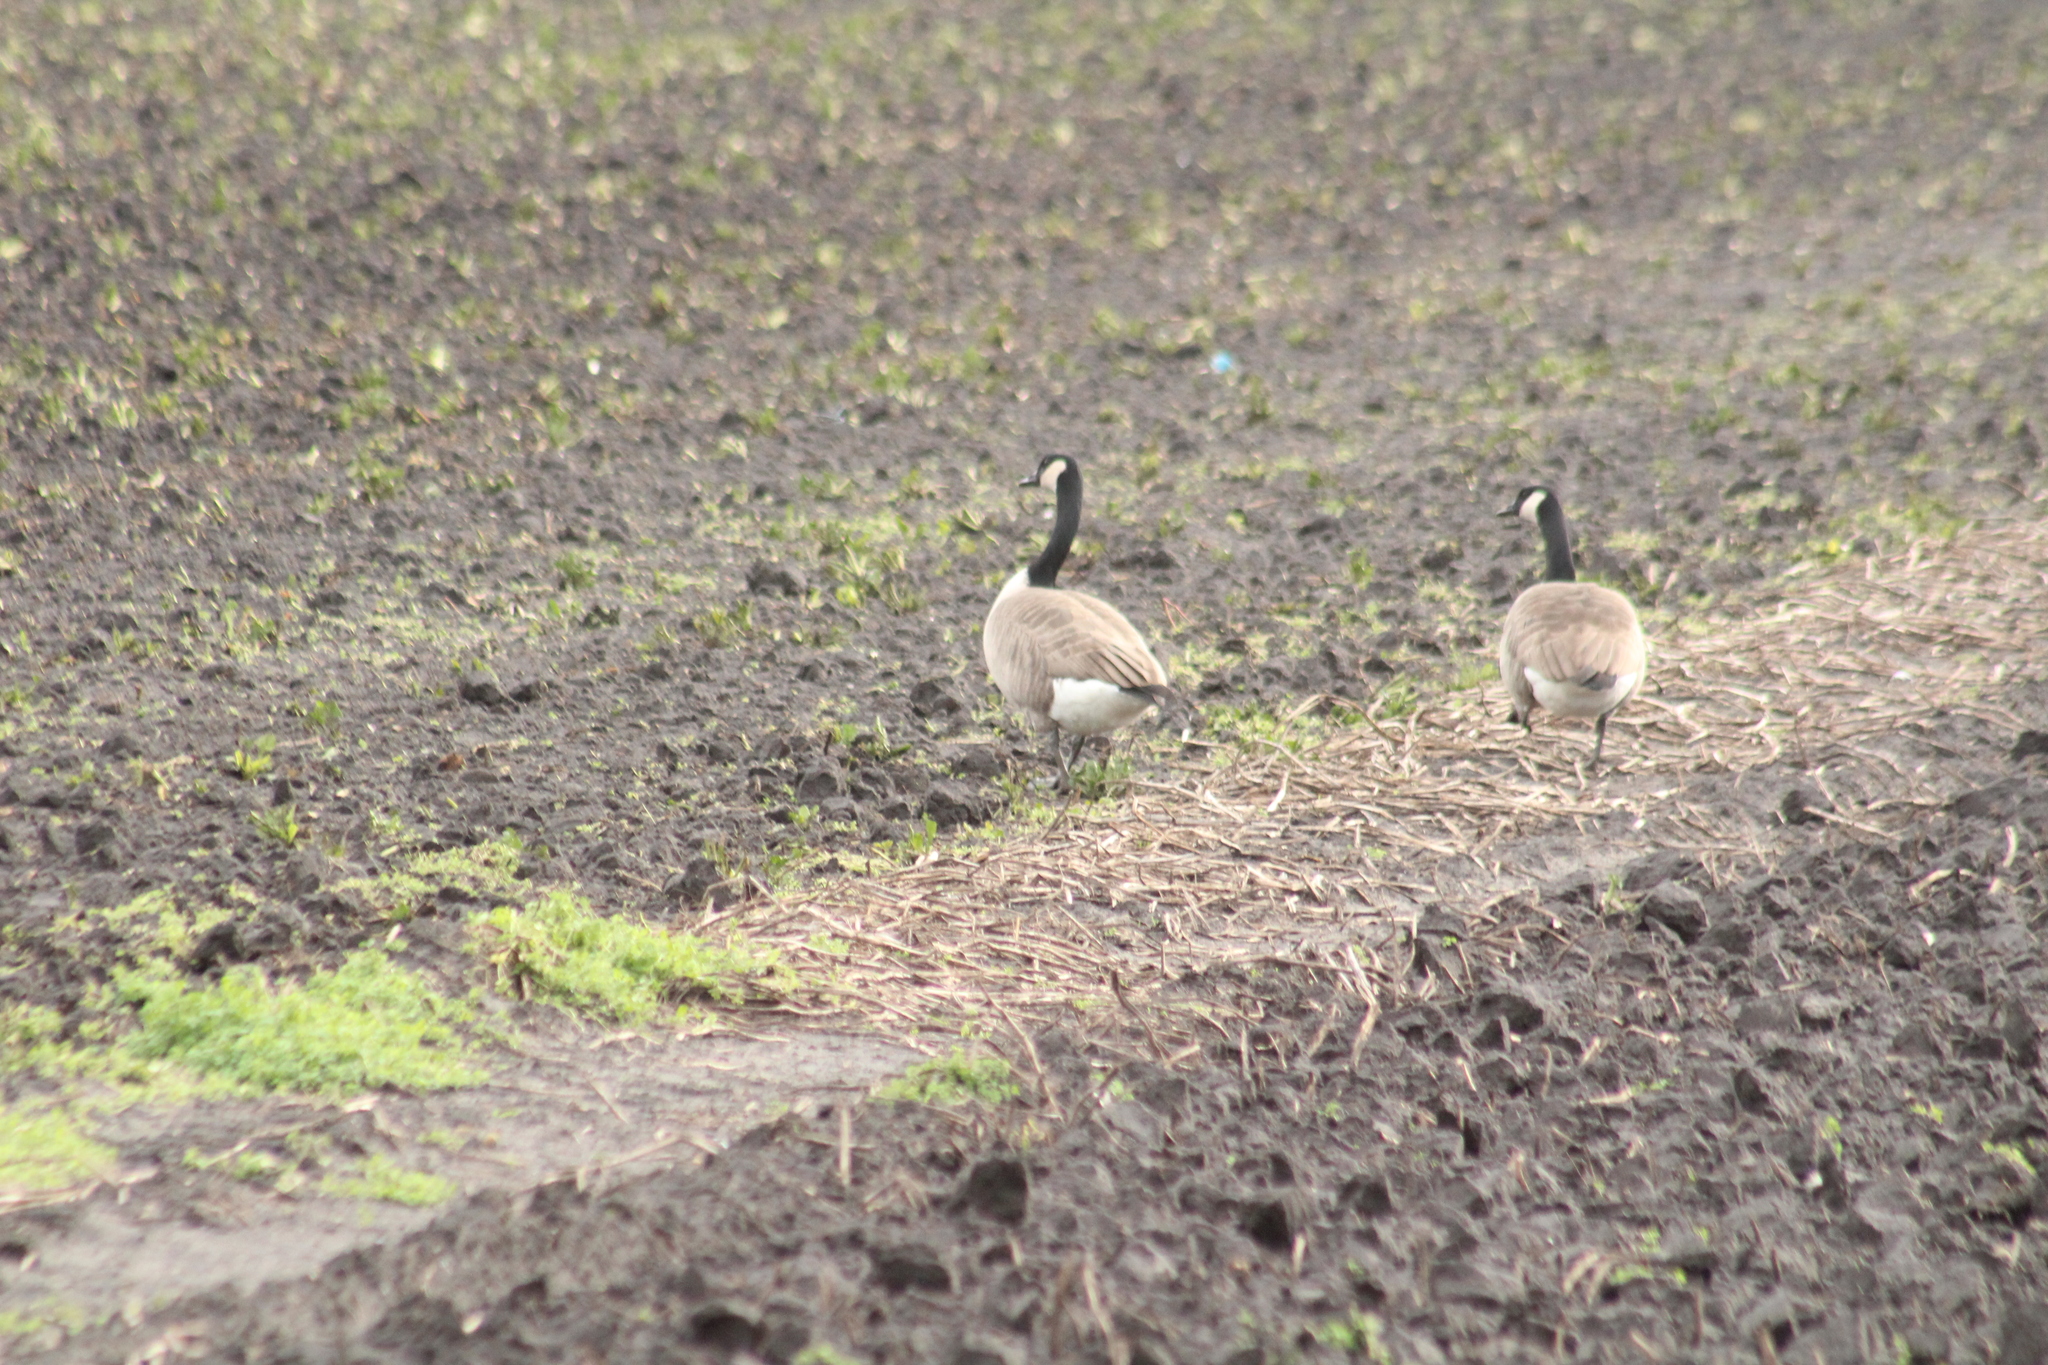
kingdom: Animalia
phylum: Chordata
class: Aves
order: Anseriformes
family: Anatidae
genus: Branta
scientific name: Branta canadensis
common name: Canada goose
